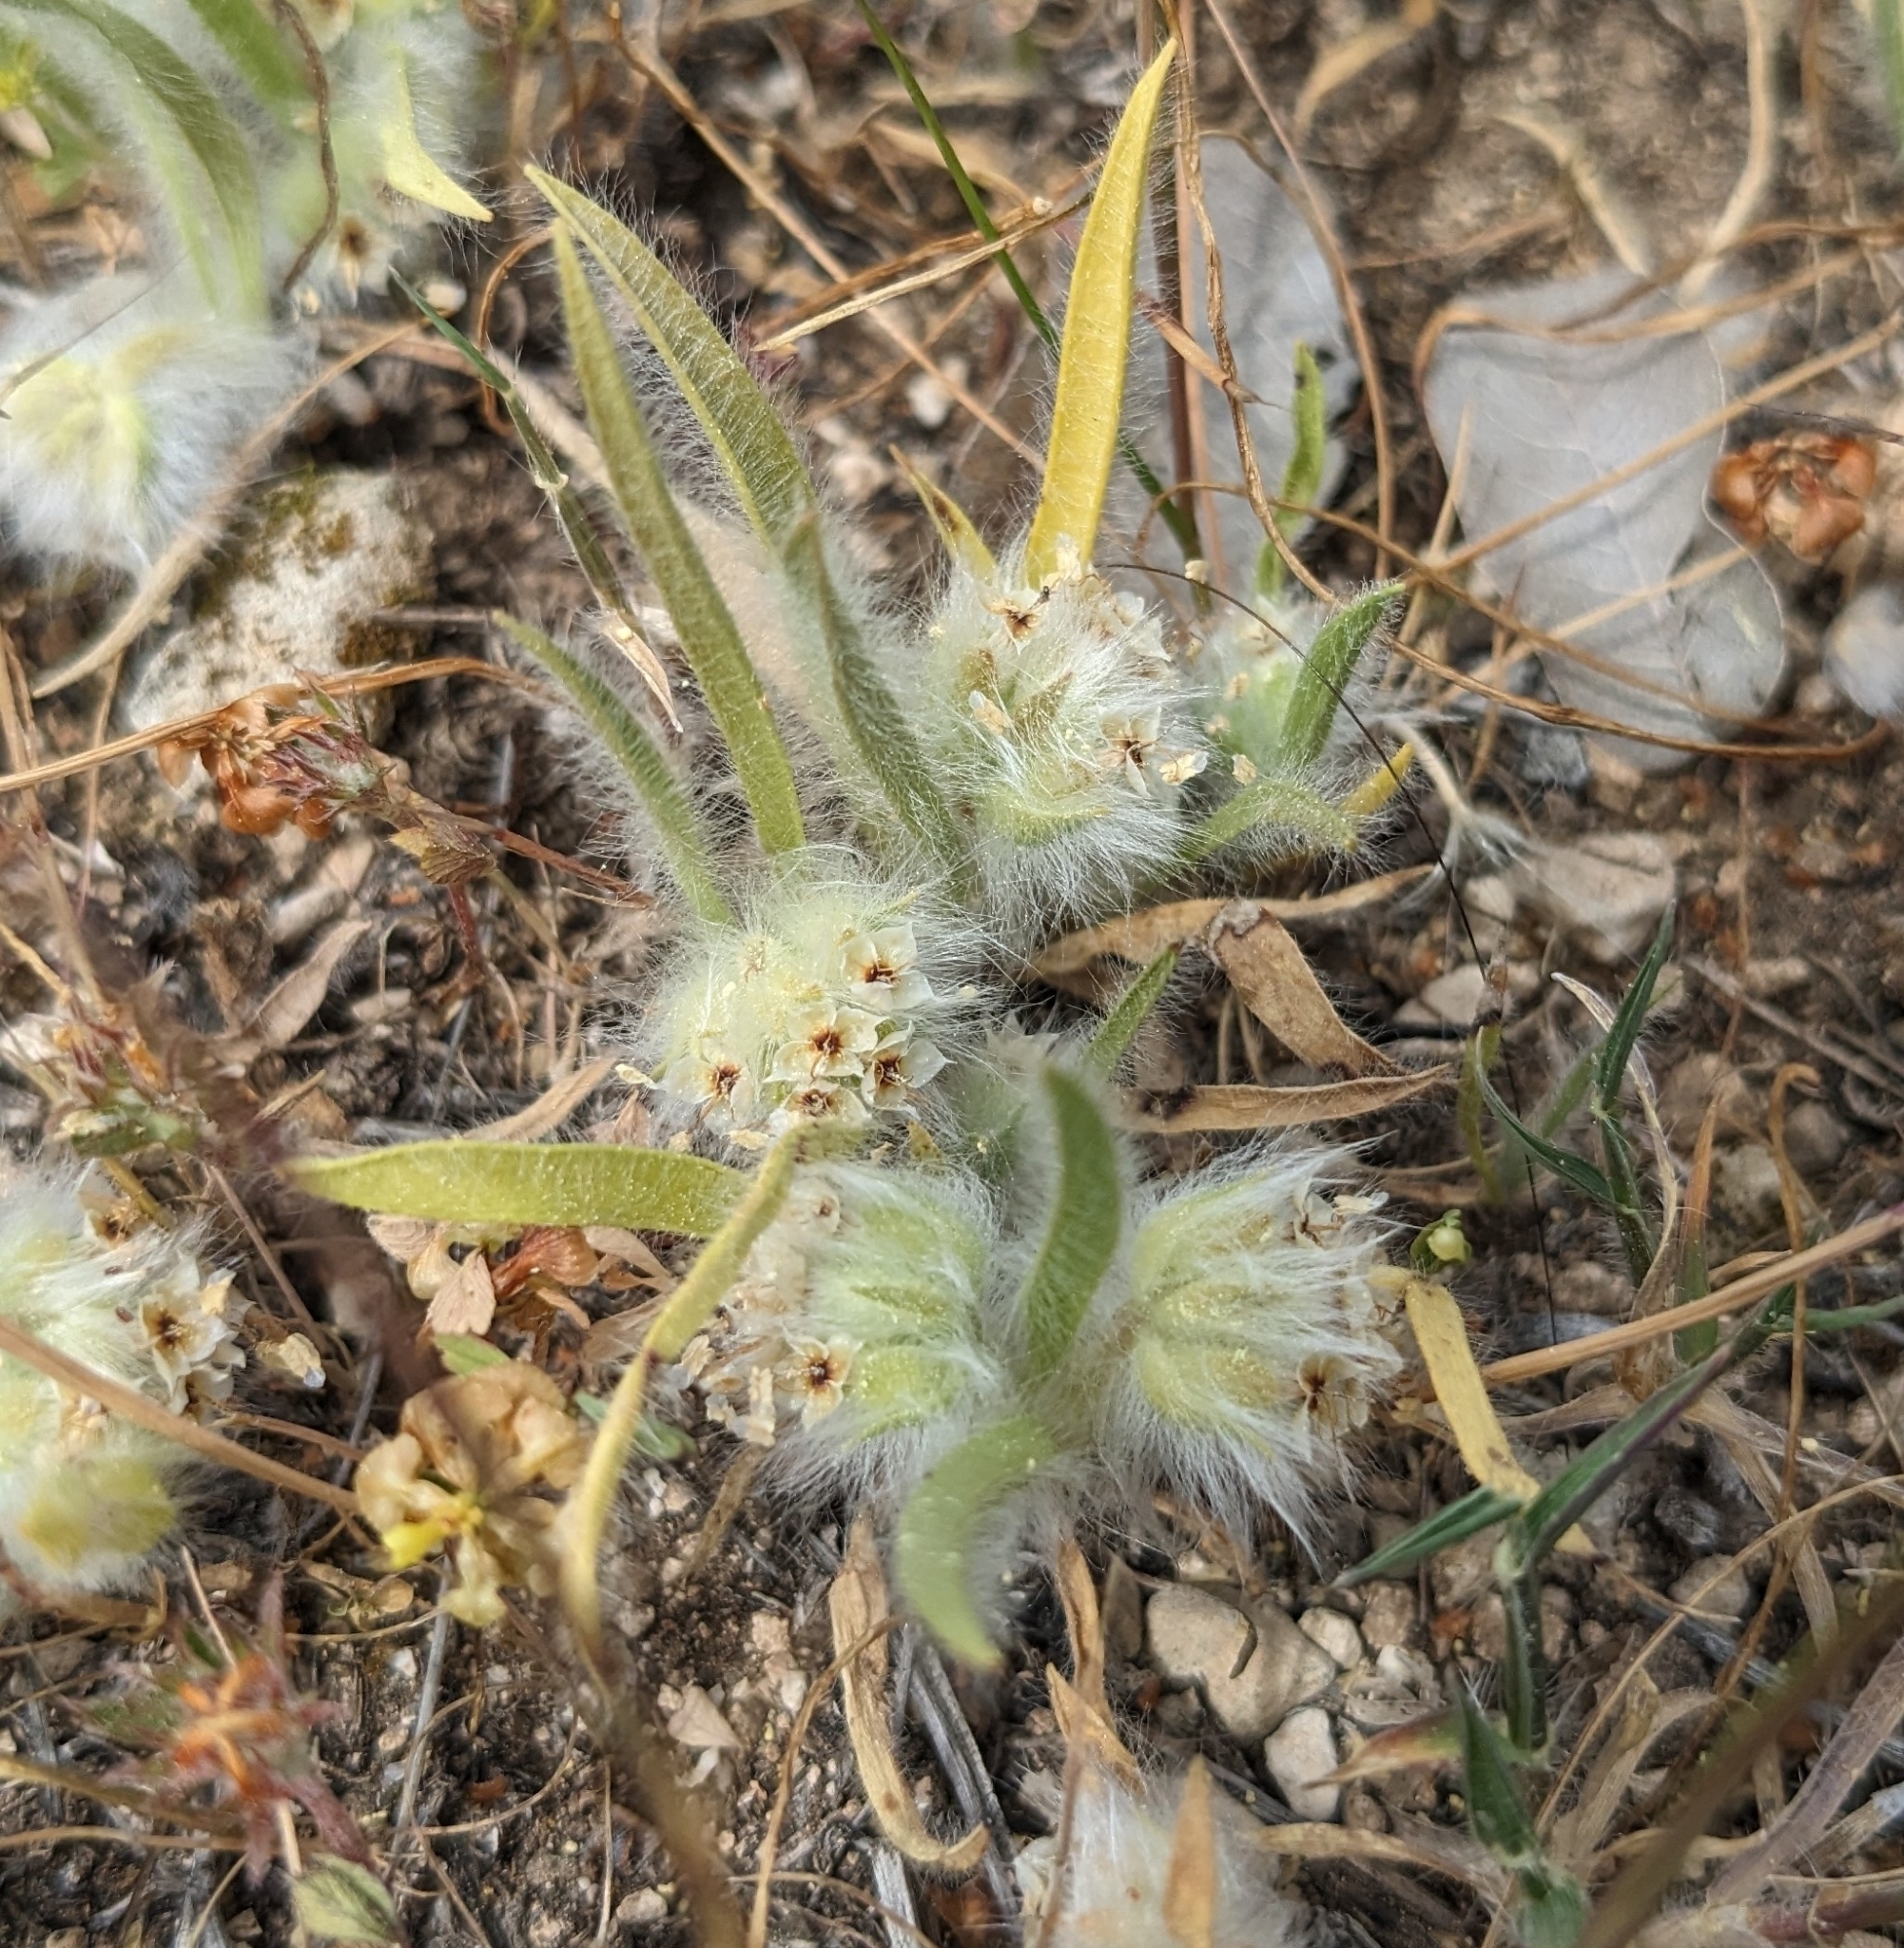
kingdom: Plantae
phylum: Tracheophyta
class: Magnoliopsida
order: Lamiales
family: Plantaginaceae
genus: Plantago
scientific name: Plantago cretica
